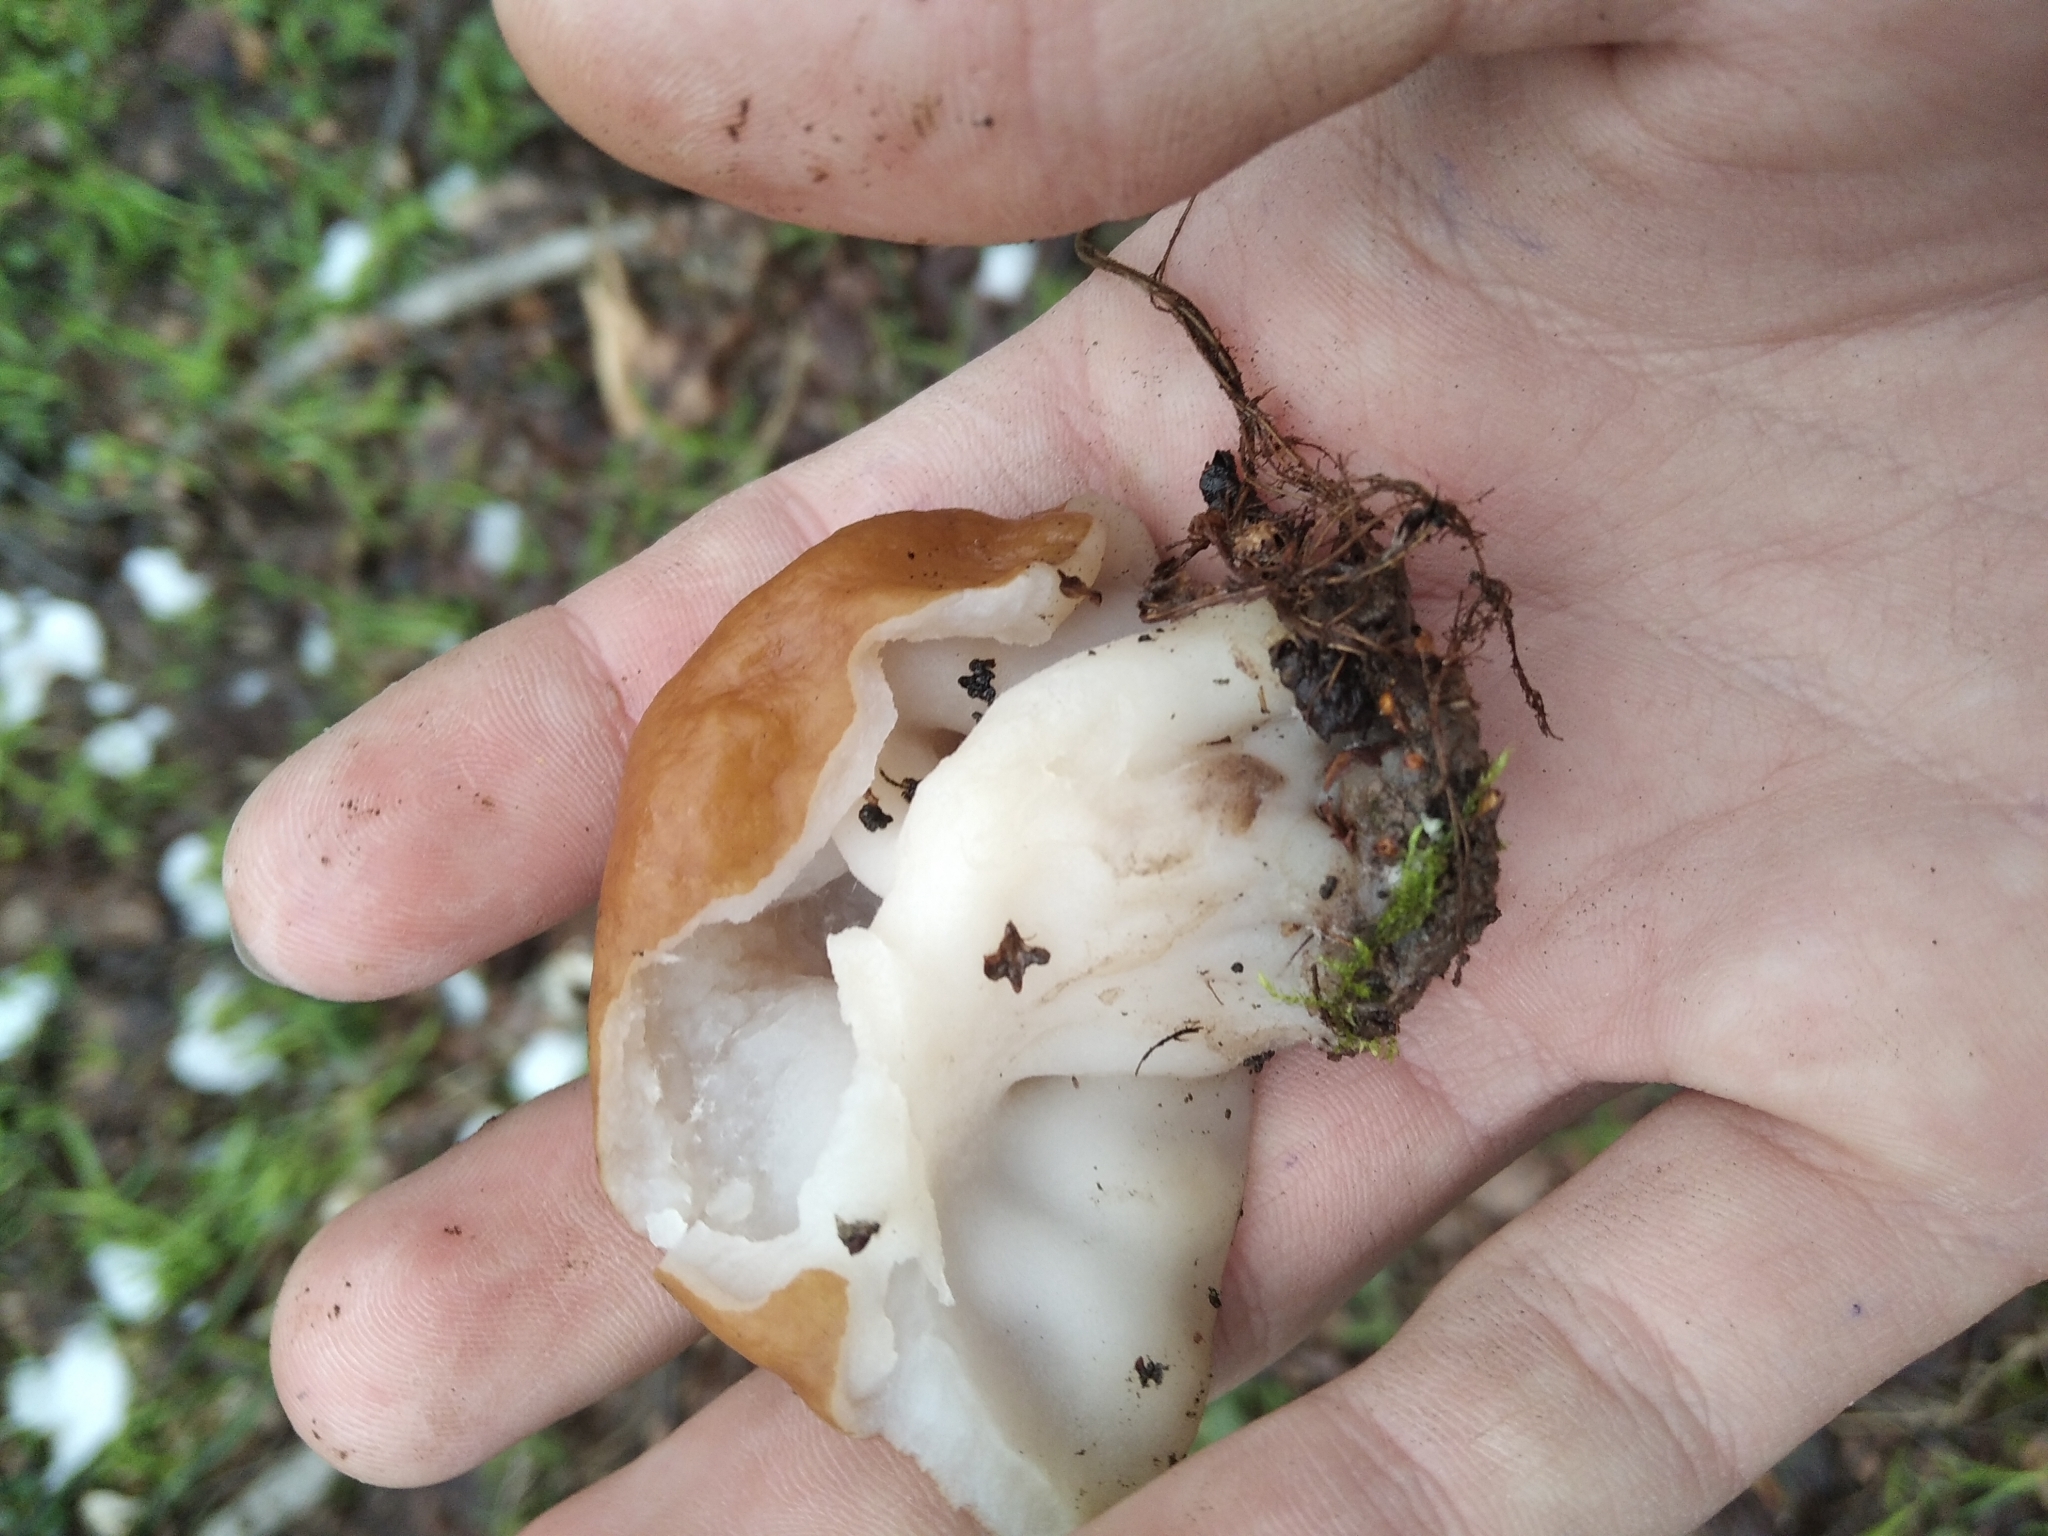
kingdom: Fungi
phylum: Ascomycota
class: Pezizomycetes
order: Pezizales
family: Discinaceae
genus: Gyromitra
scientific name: Gyromitra gigas
